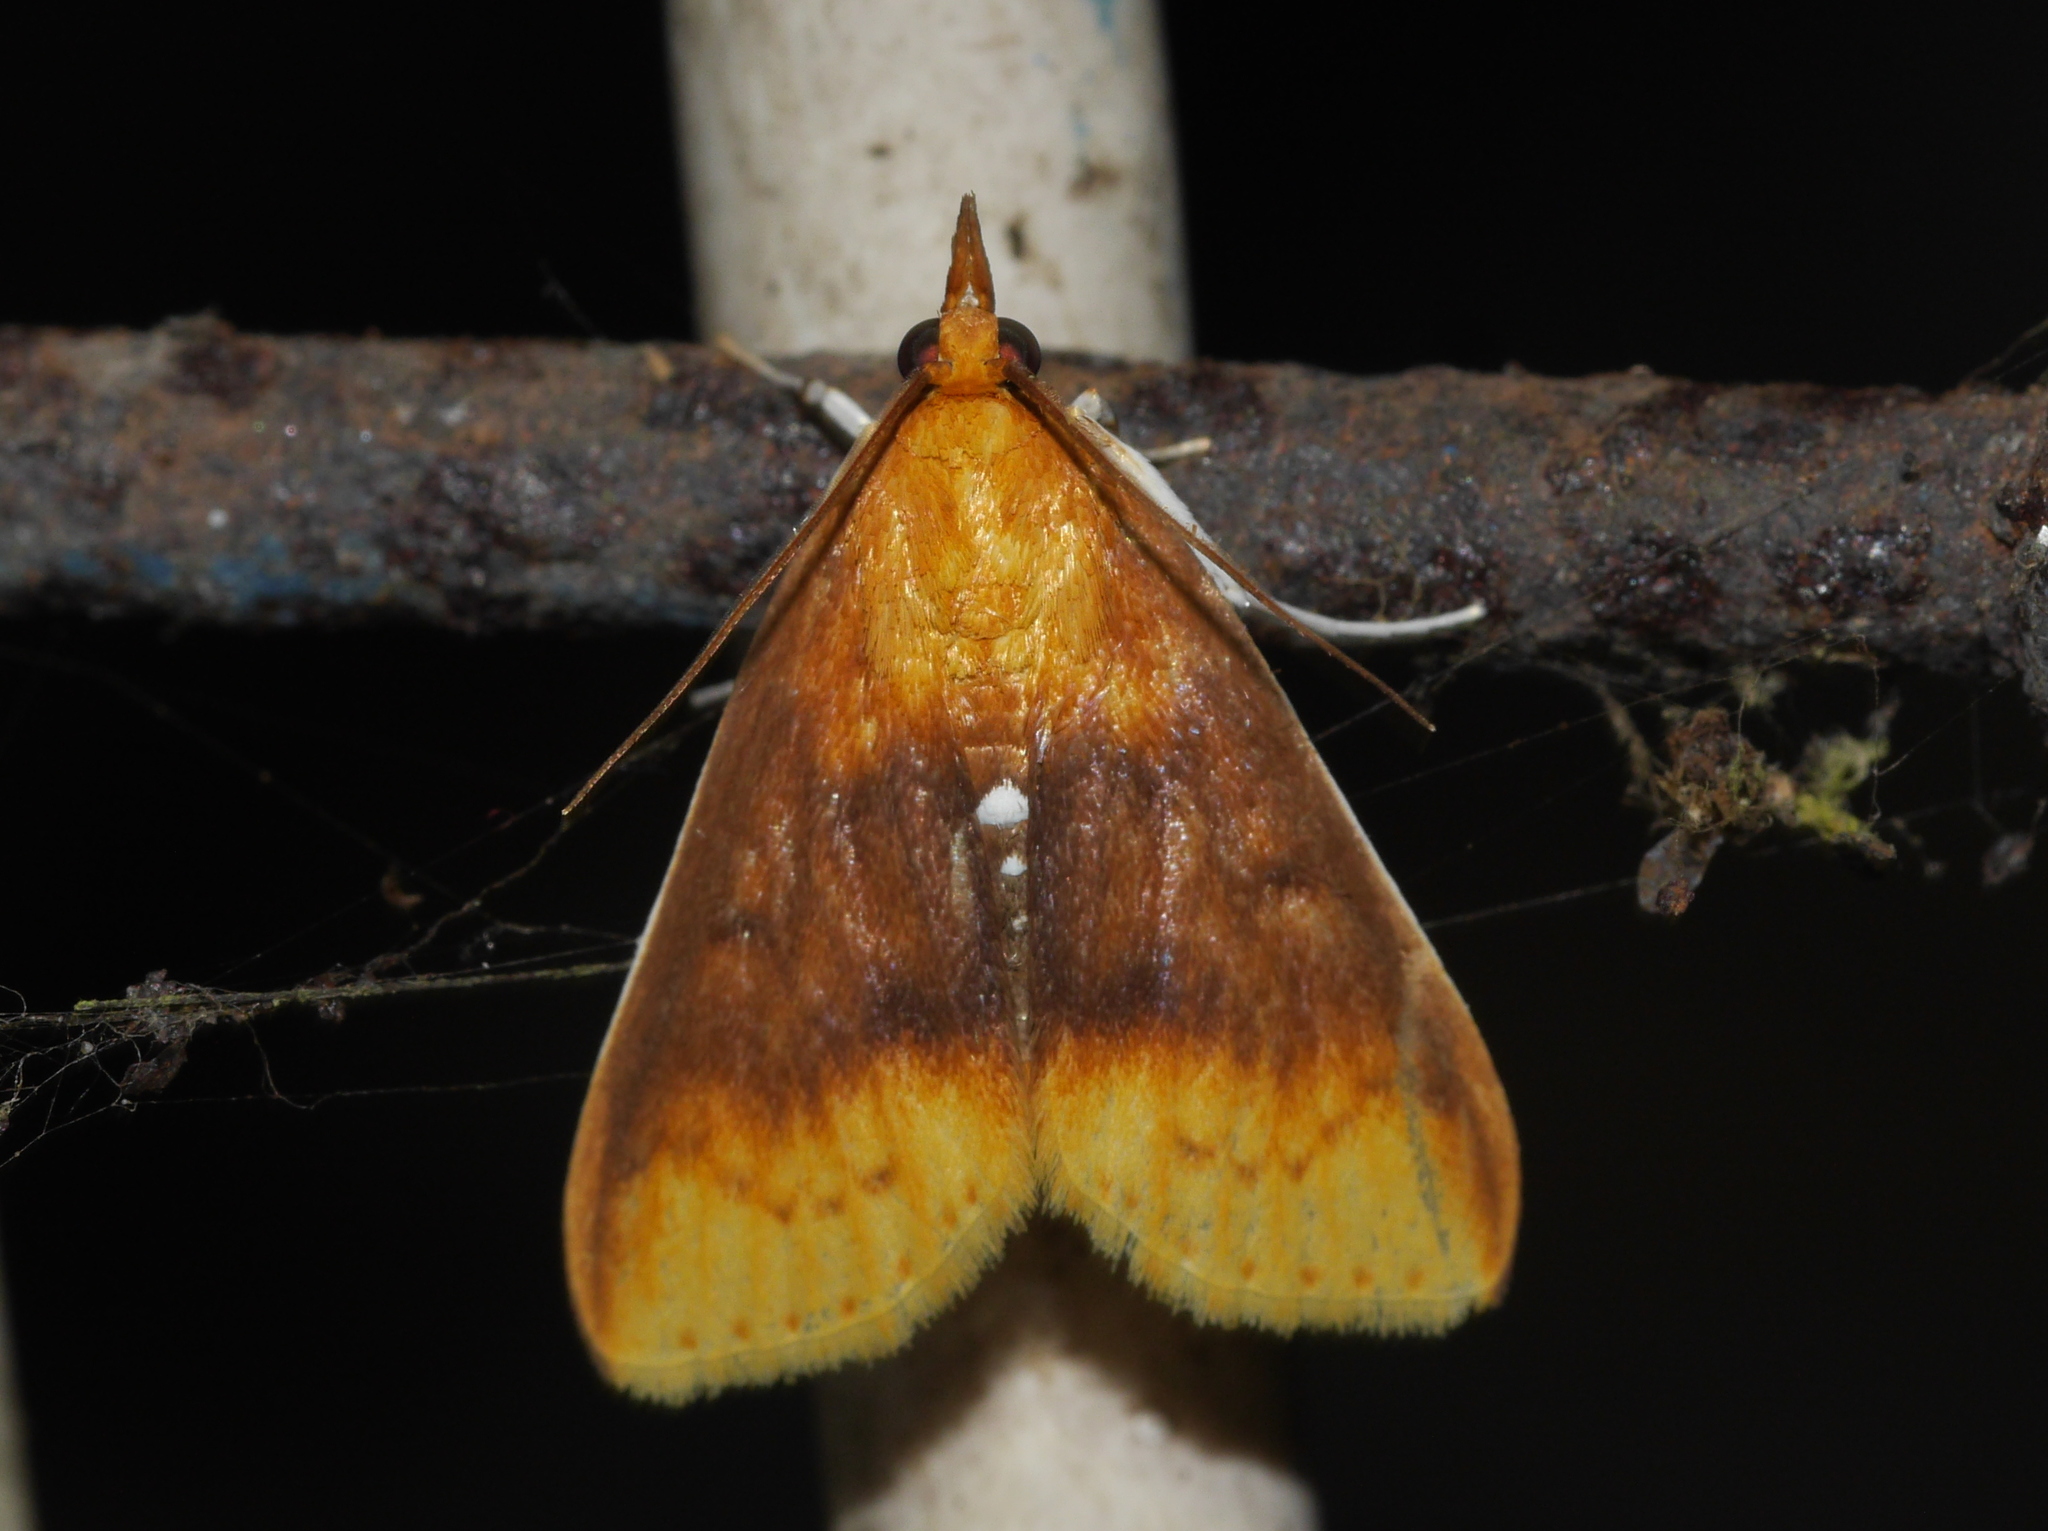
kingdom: Animalia
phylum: Arthropoda
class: Insecta
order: Lepidoptera
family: Crambidae
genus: Lipararchis
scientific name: Lipararchis tranquillalis
